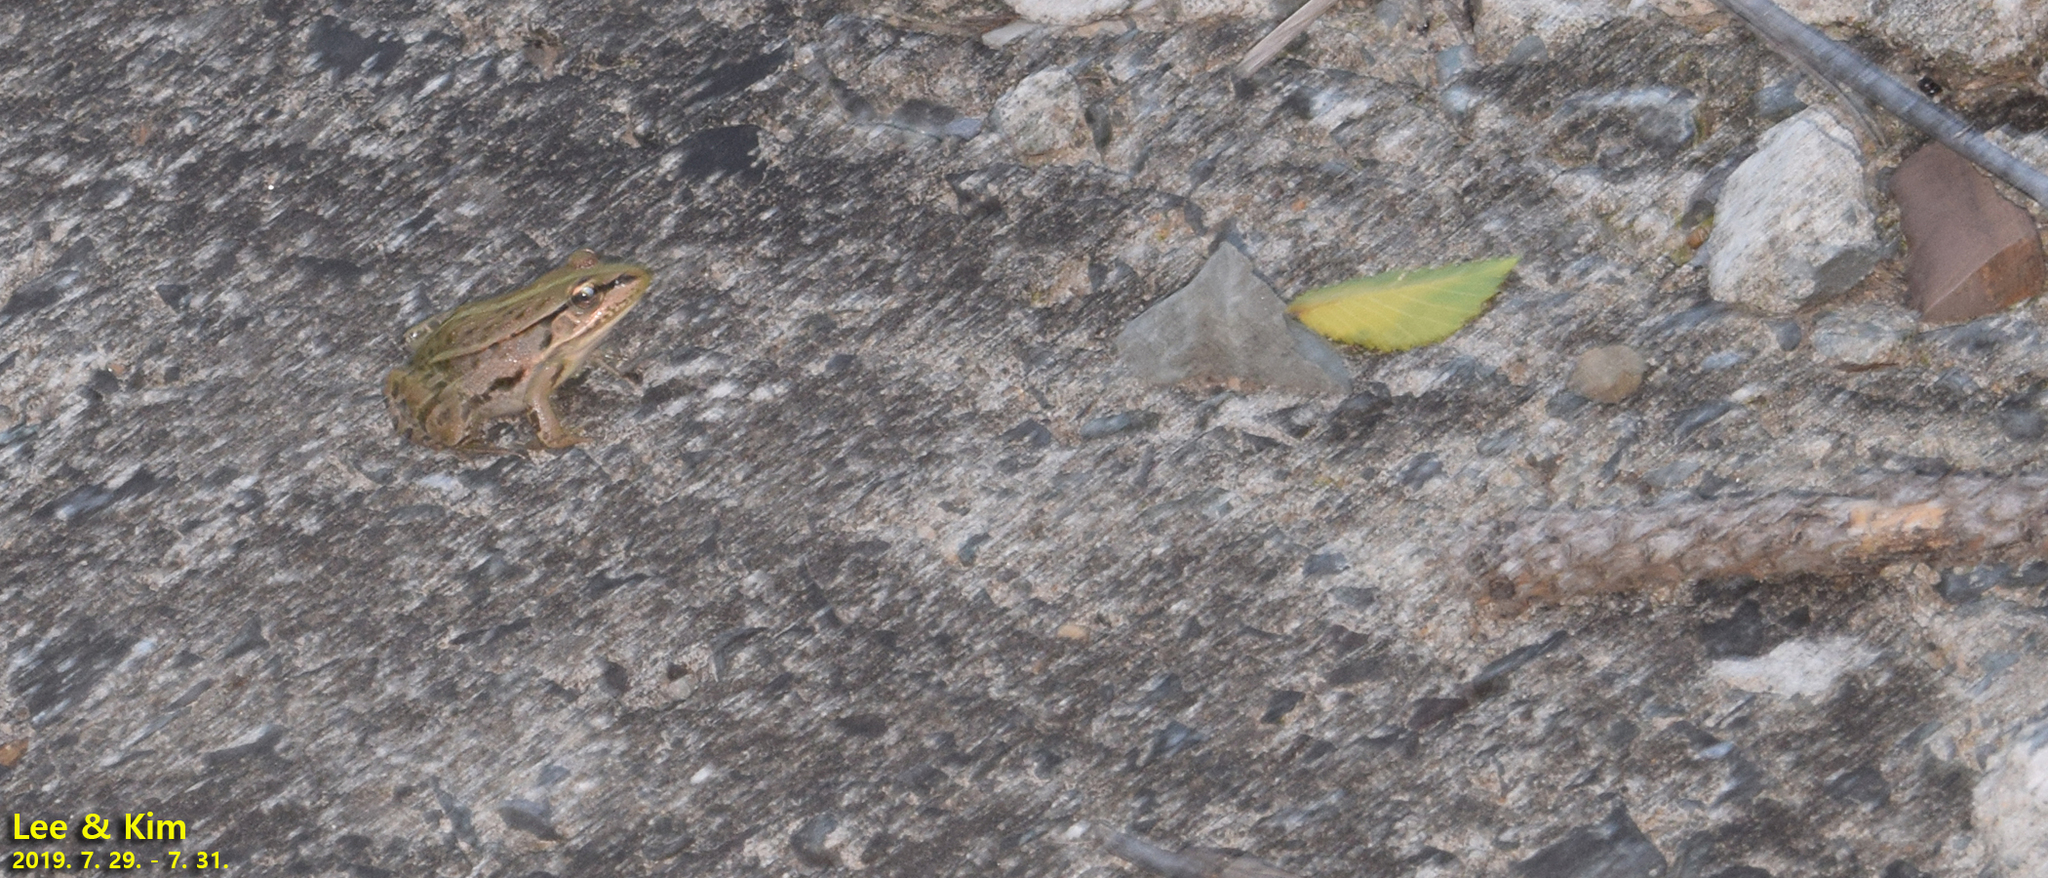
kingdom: Animalia
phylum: Chordata
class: Amphibia
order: Anura
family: Ranidae
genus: Pelophylax
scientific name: Pelophylax nigromaculatus
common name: Black-spotted pond frog
